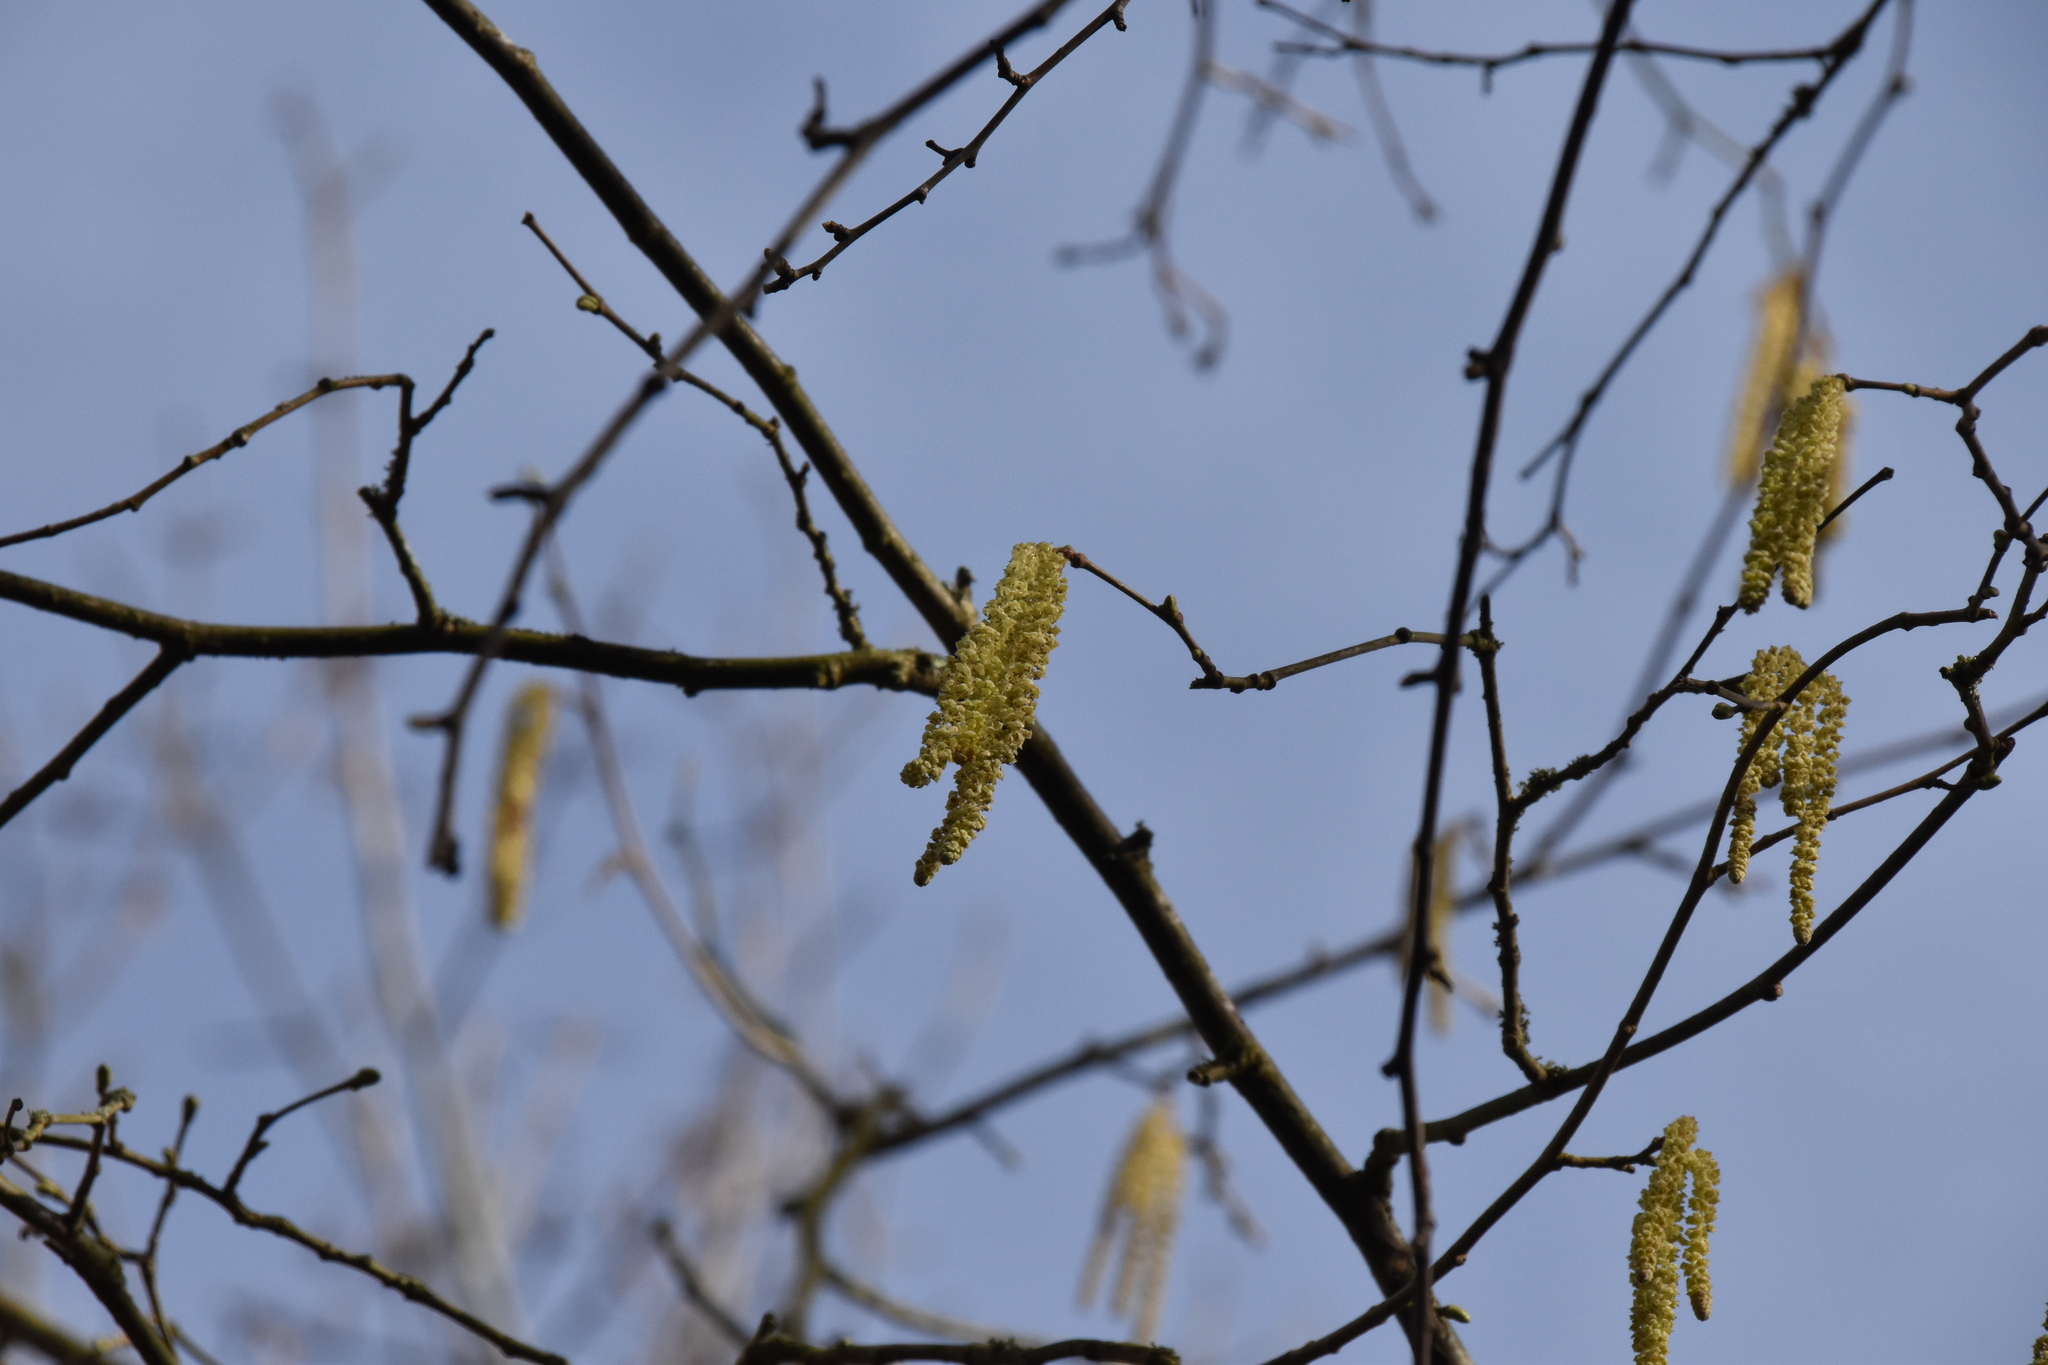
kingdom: Plantae
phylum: Tracheophyta
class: Magnoliopsida
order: Fagales
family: Betulaceae
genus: Corylus
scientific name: Corylus avellana
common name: European hazel
